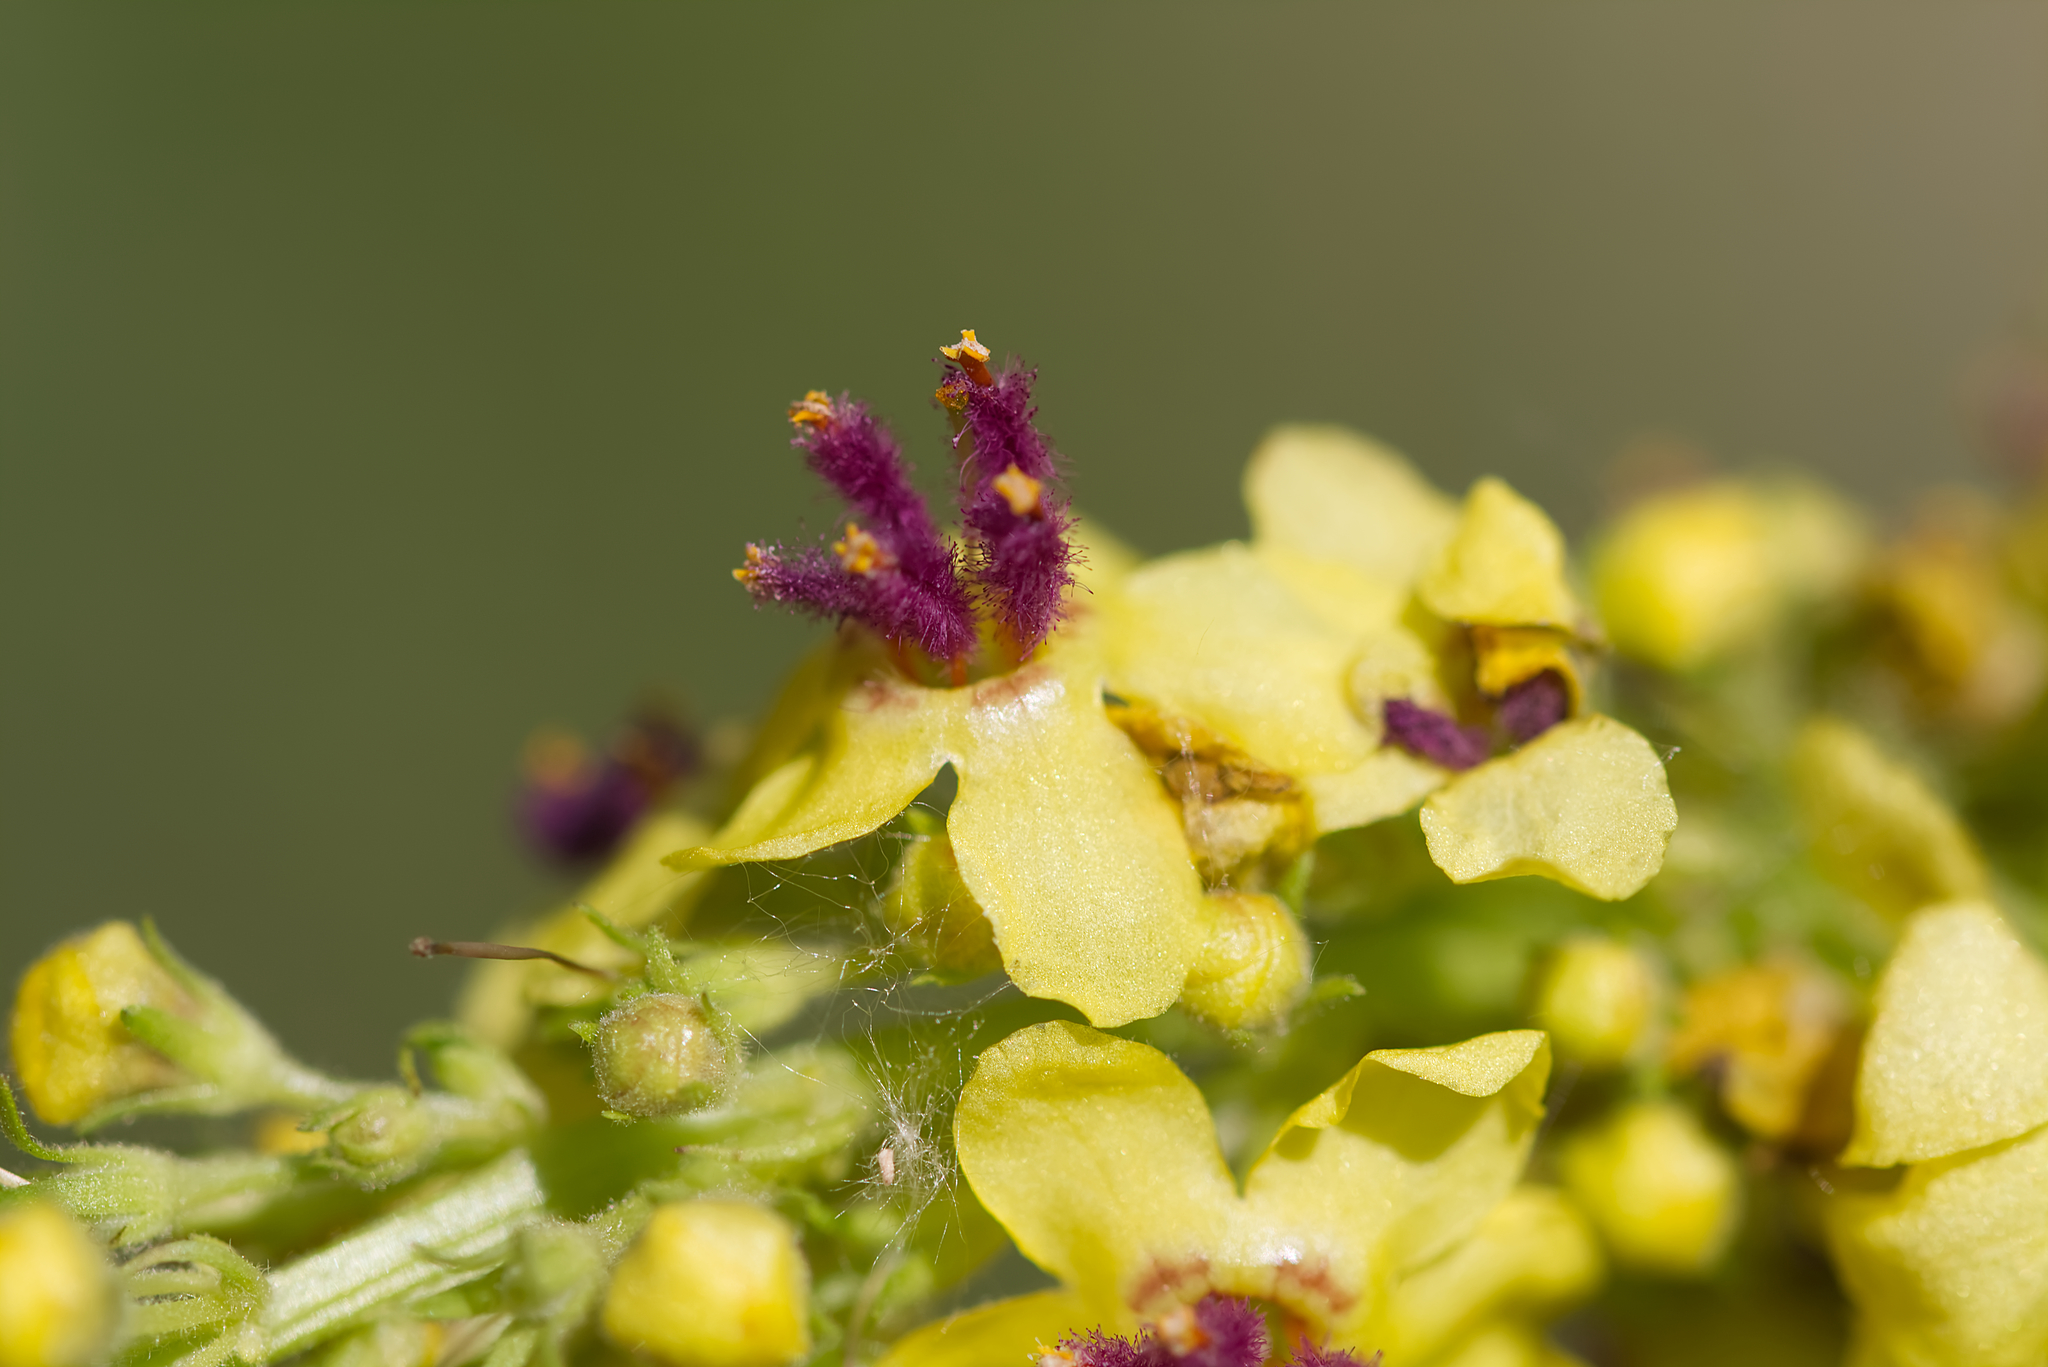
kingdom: Plantae
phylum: Tracheophyta
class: Magnoliopsida
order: Lamiales
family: Scrophulariaceae
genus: Verbascum
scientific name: Verbascum nigrum
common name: Dark mullein
